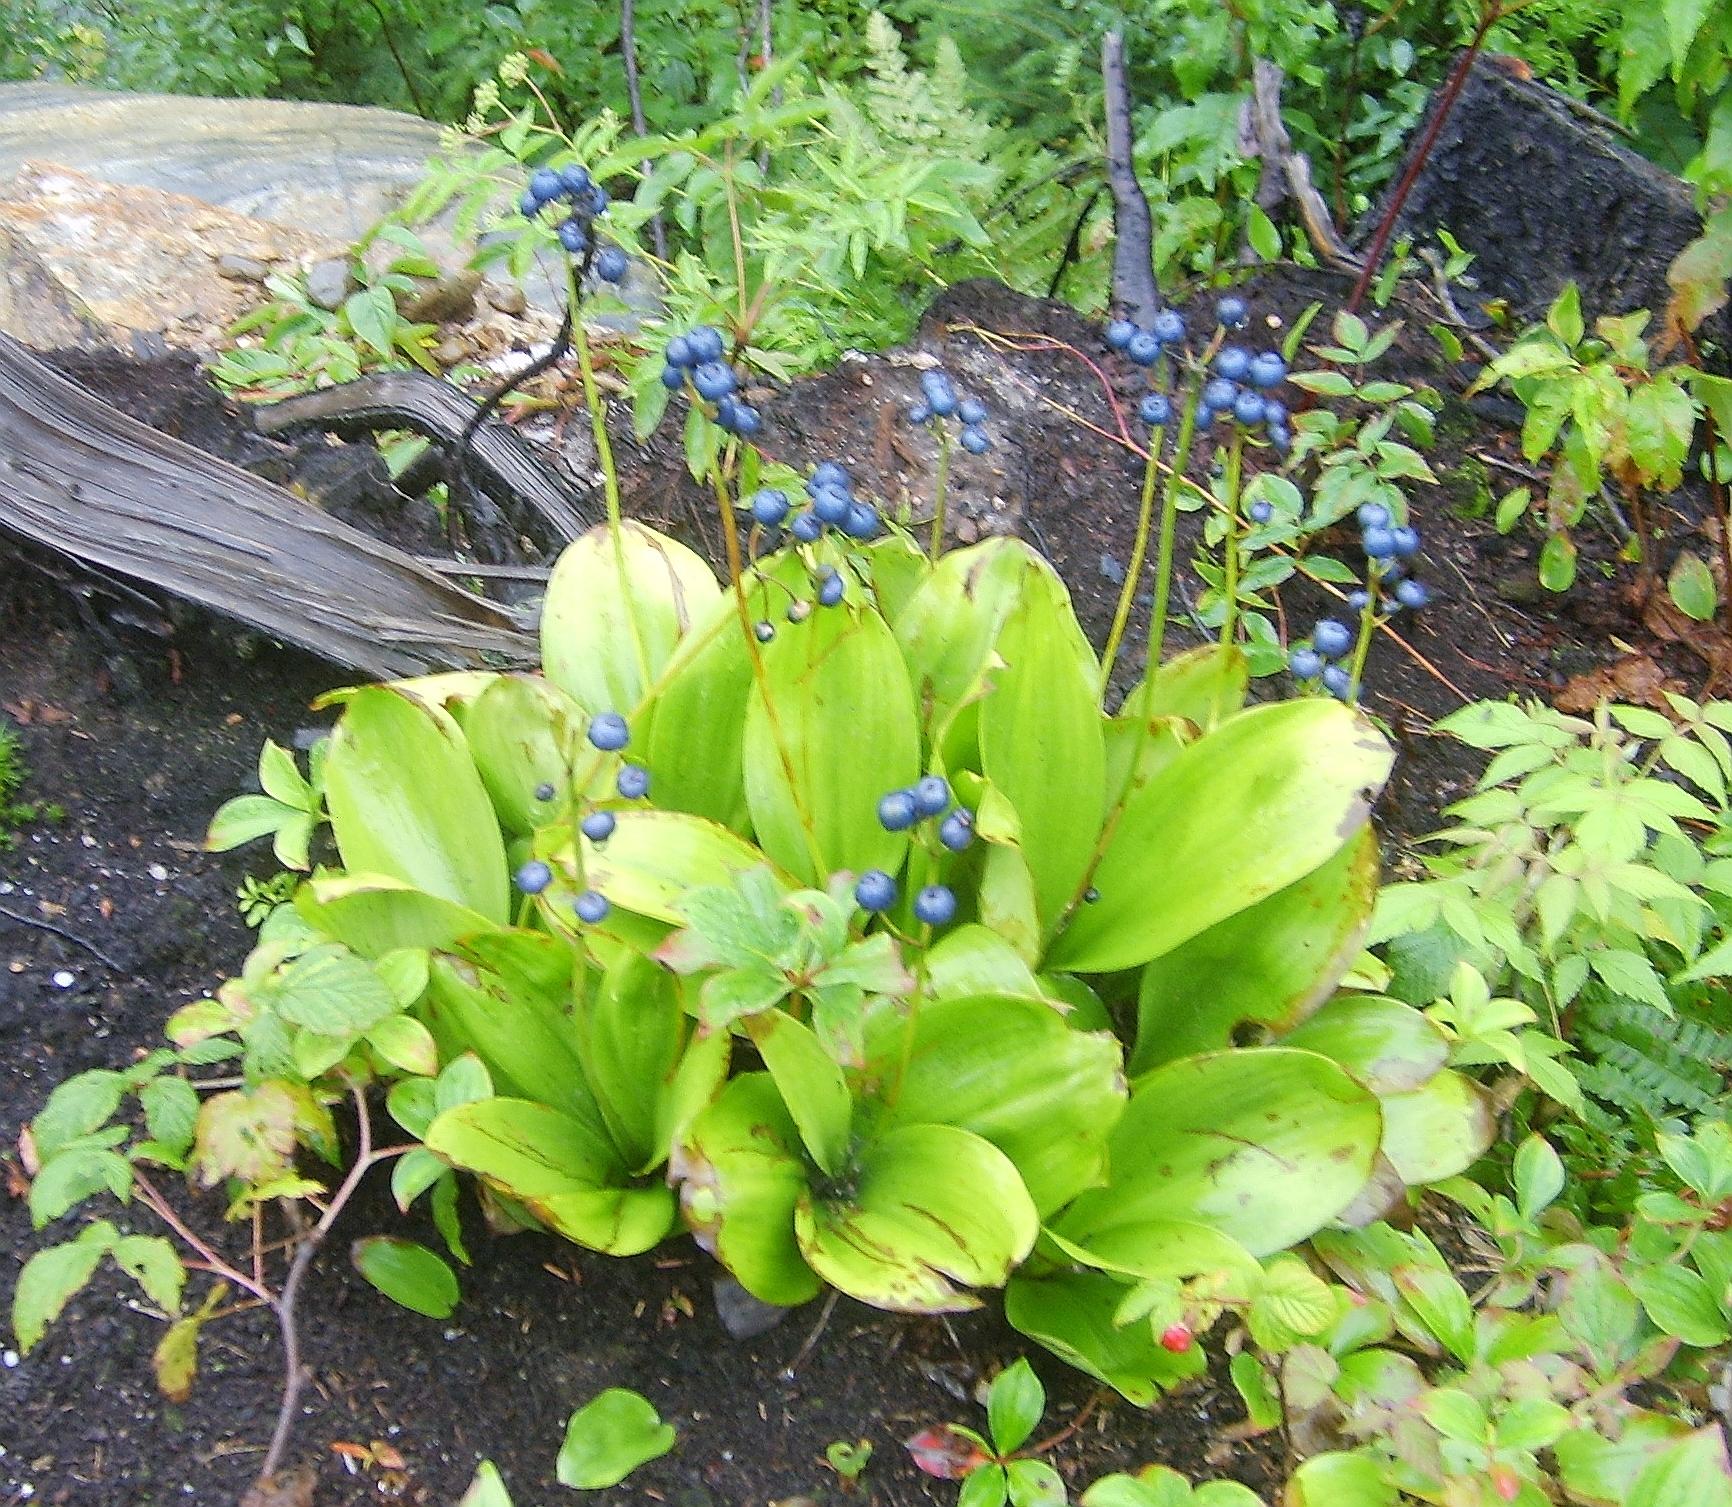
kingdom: Plantae
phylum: Tracheophyta
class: Liliopsida
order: Liliales
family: Liliaceae
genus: Clintonia
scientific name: Clintonia borealis
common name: Yellow clintonia
